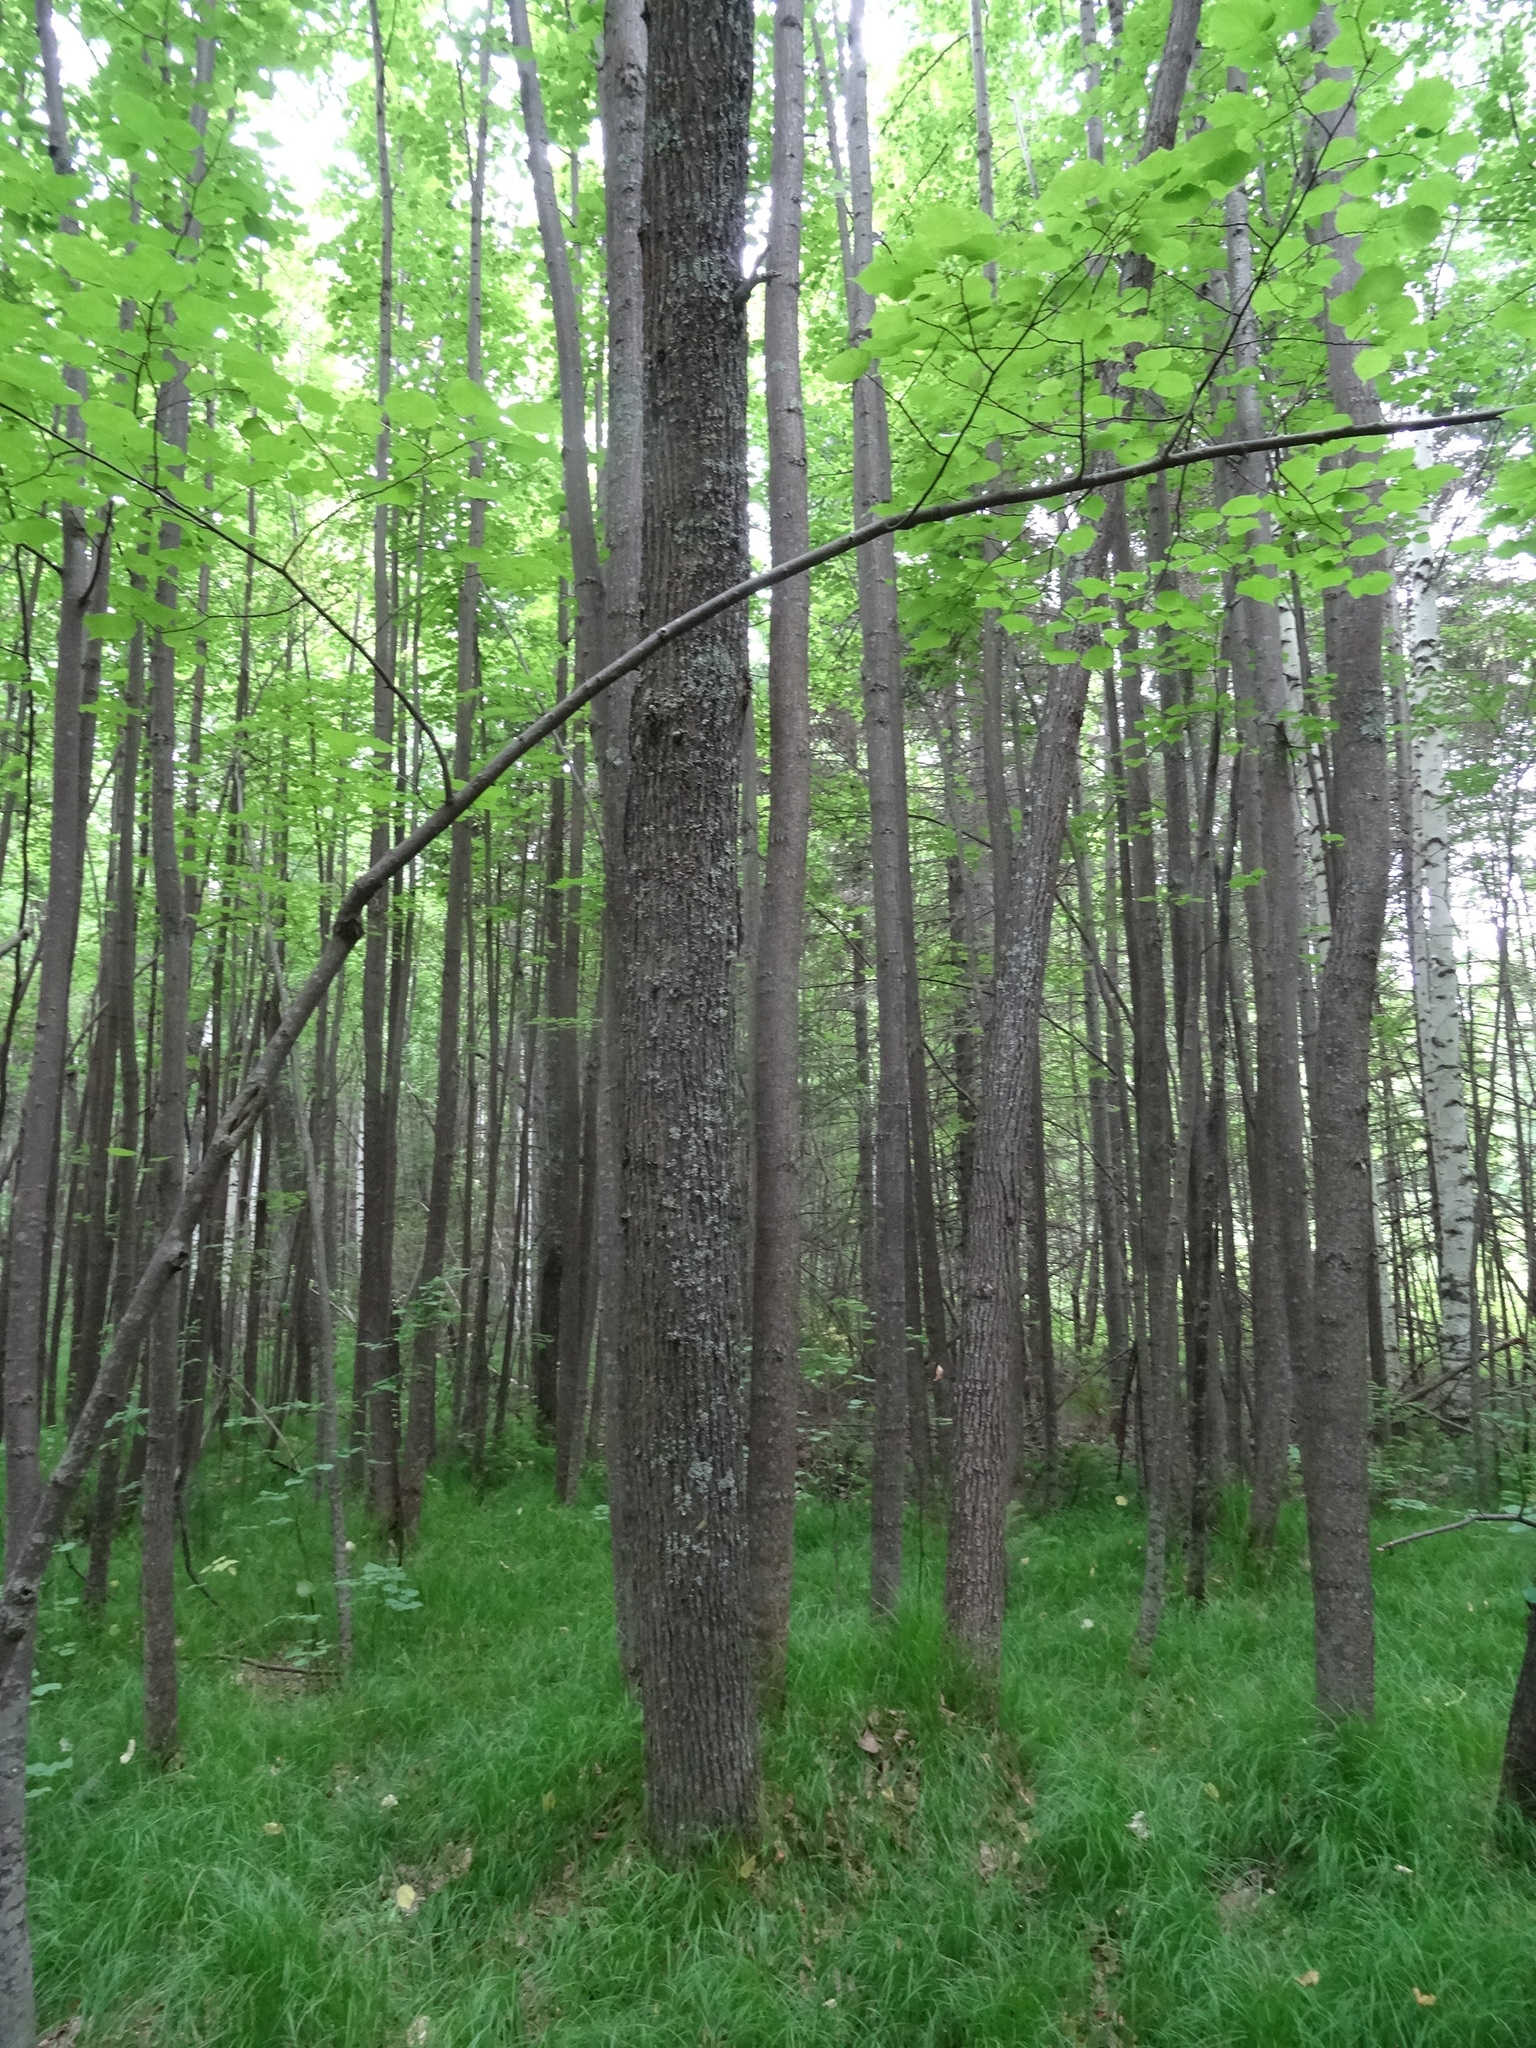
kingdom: Plantae
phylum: Tracheophyta
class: Magnoliopsida
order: Malvales
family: Malvaceae
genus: Tilia
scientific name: Tilia cordata
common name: Small-leaved lime
